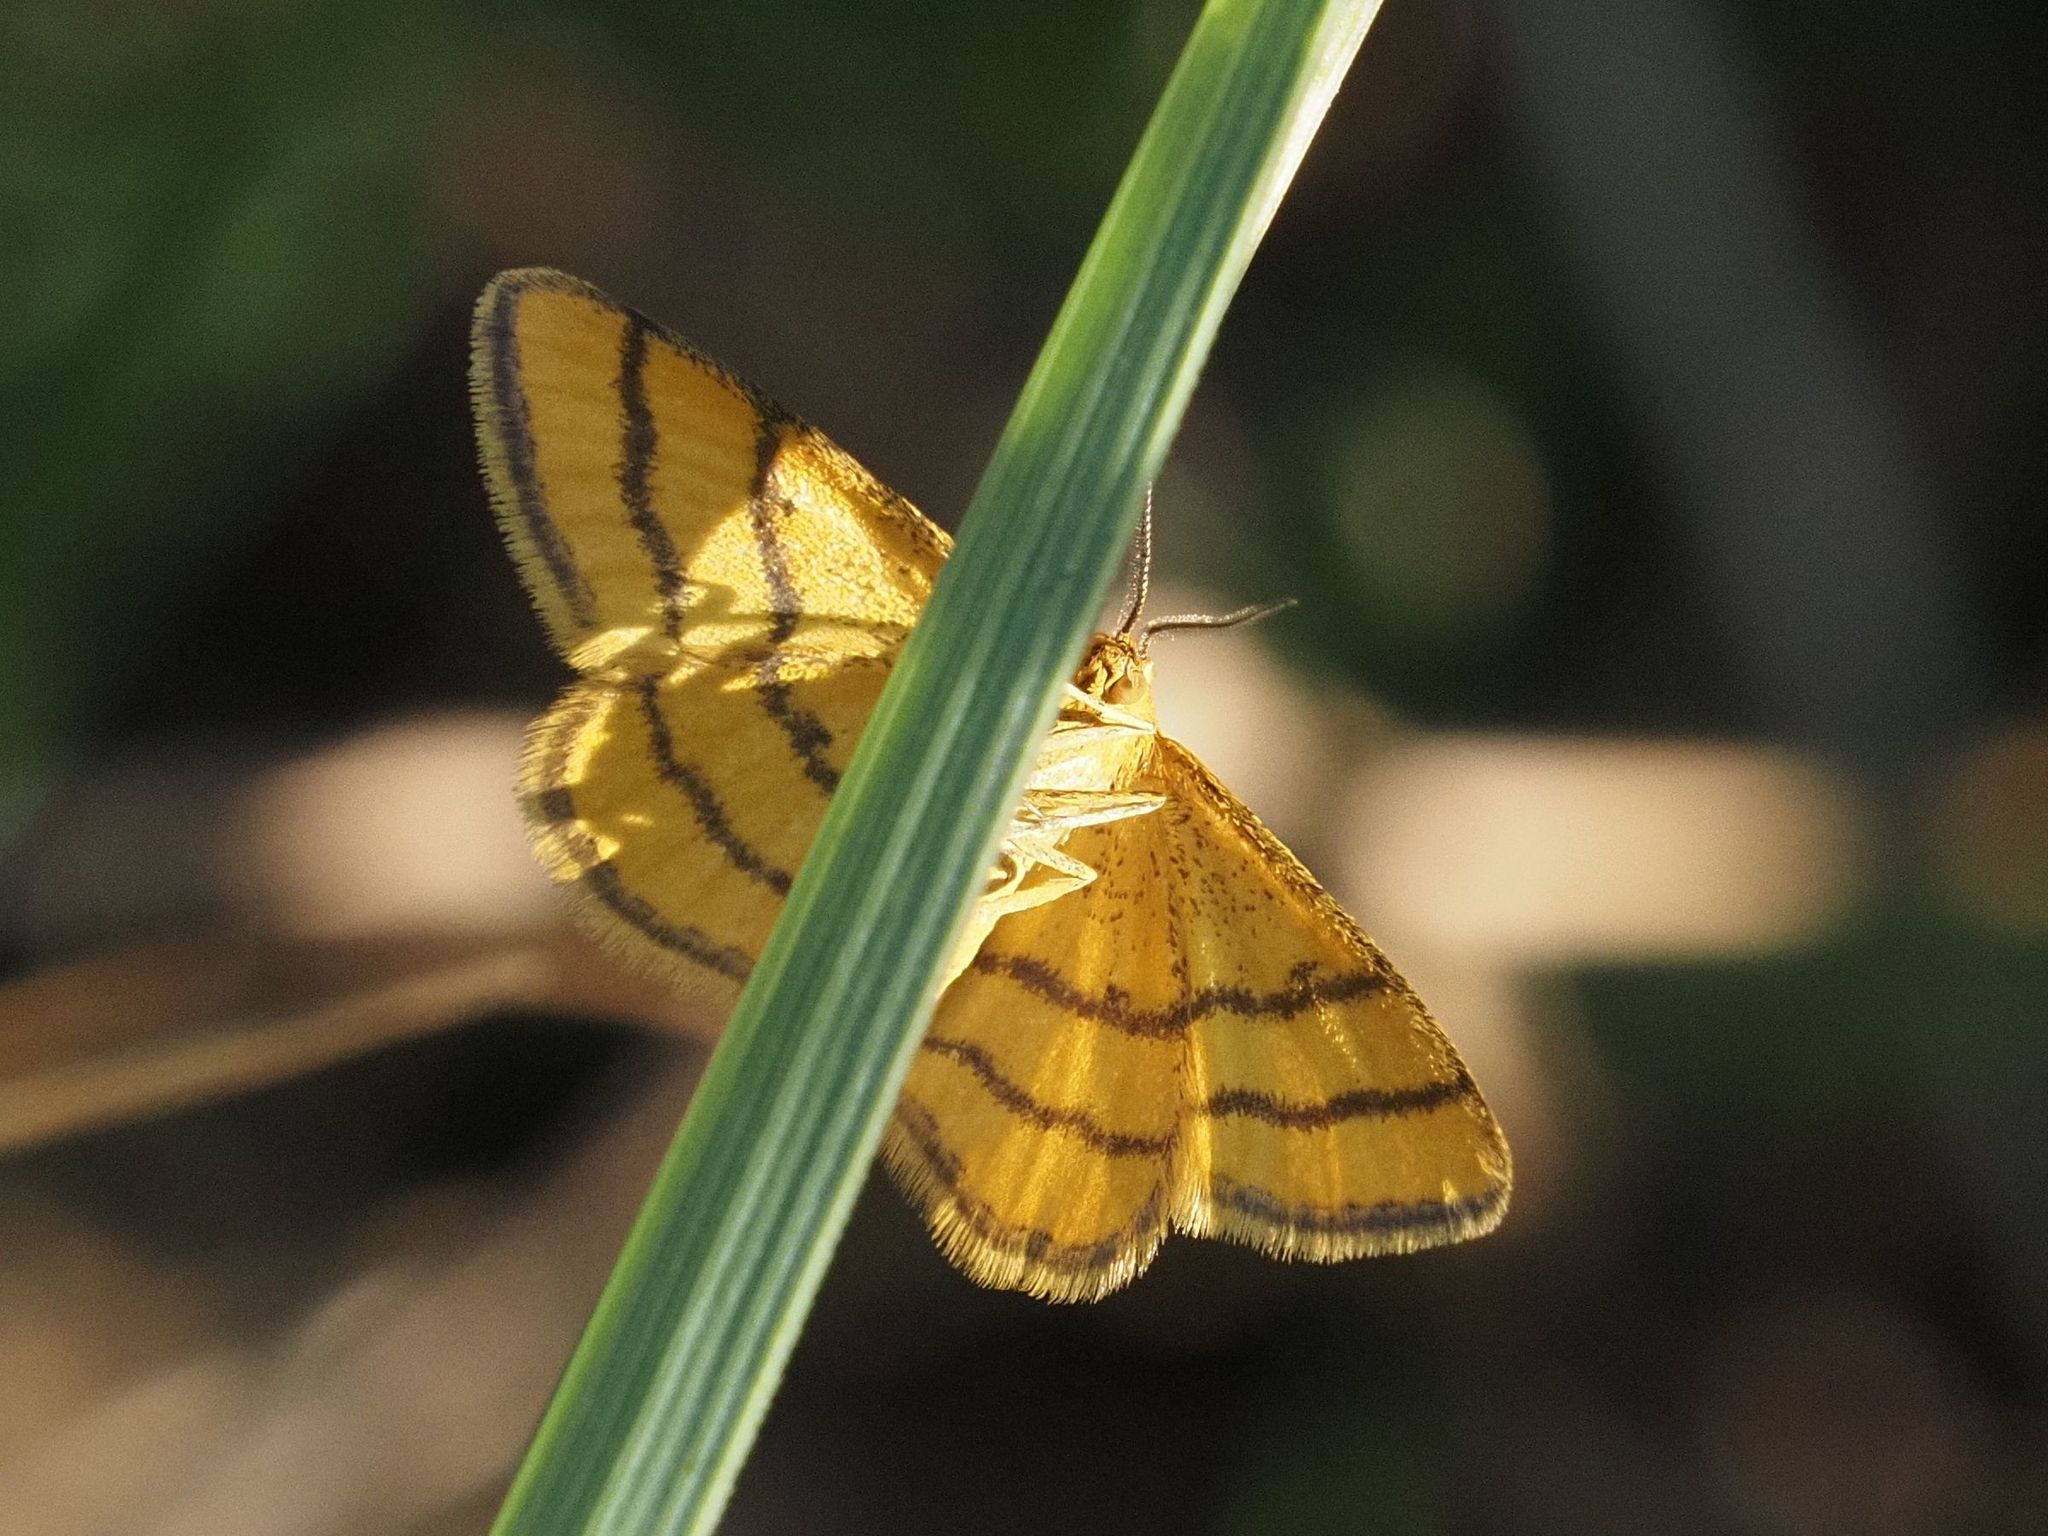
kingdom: Animalia
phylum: Arthropoda
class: Insecta
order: Lepidoptera
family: Geometridae
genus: Idaea
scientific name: Idaea aureolaria
